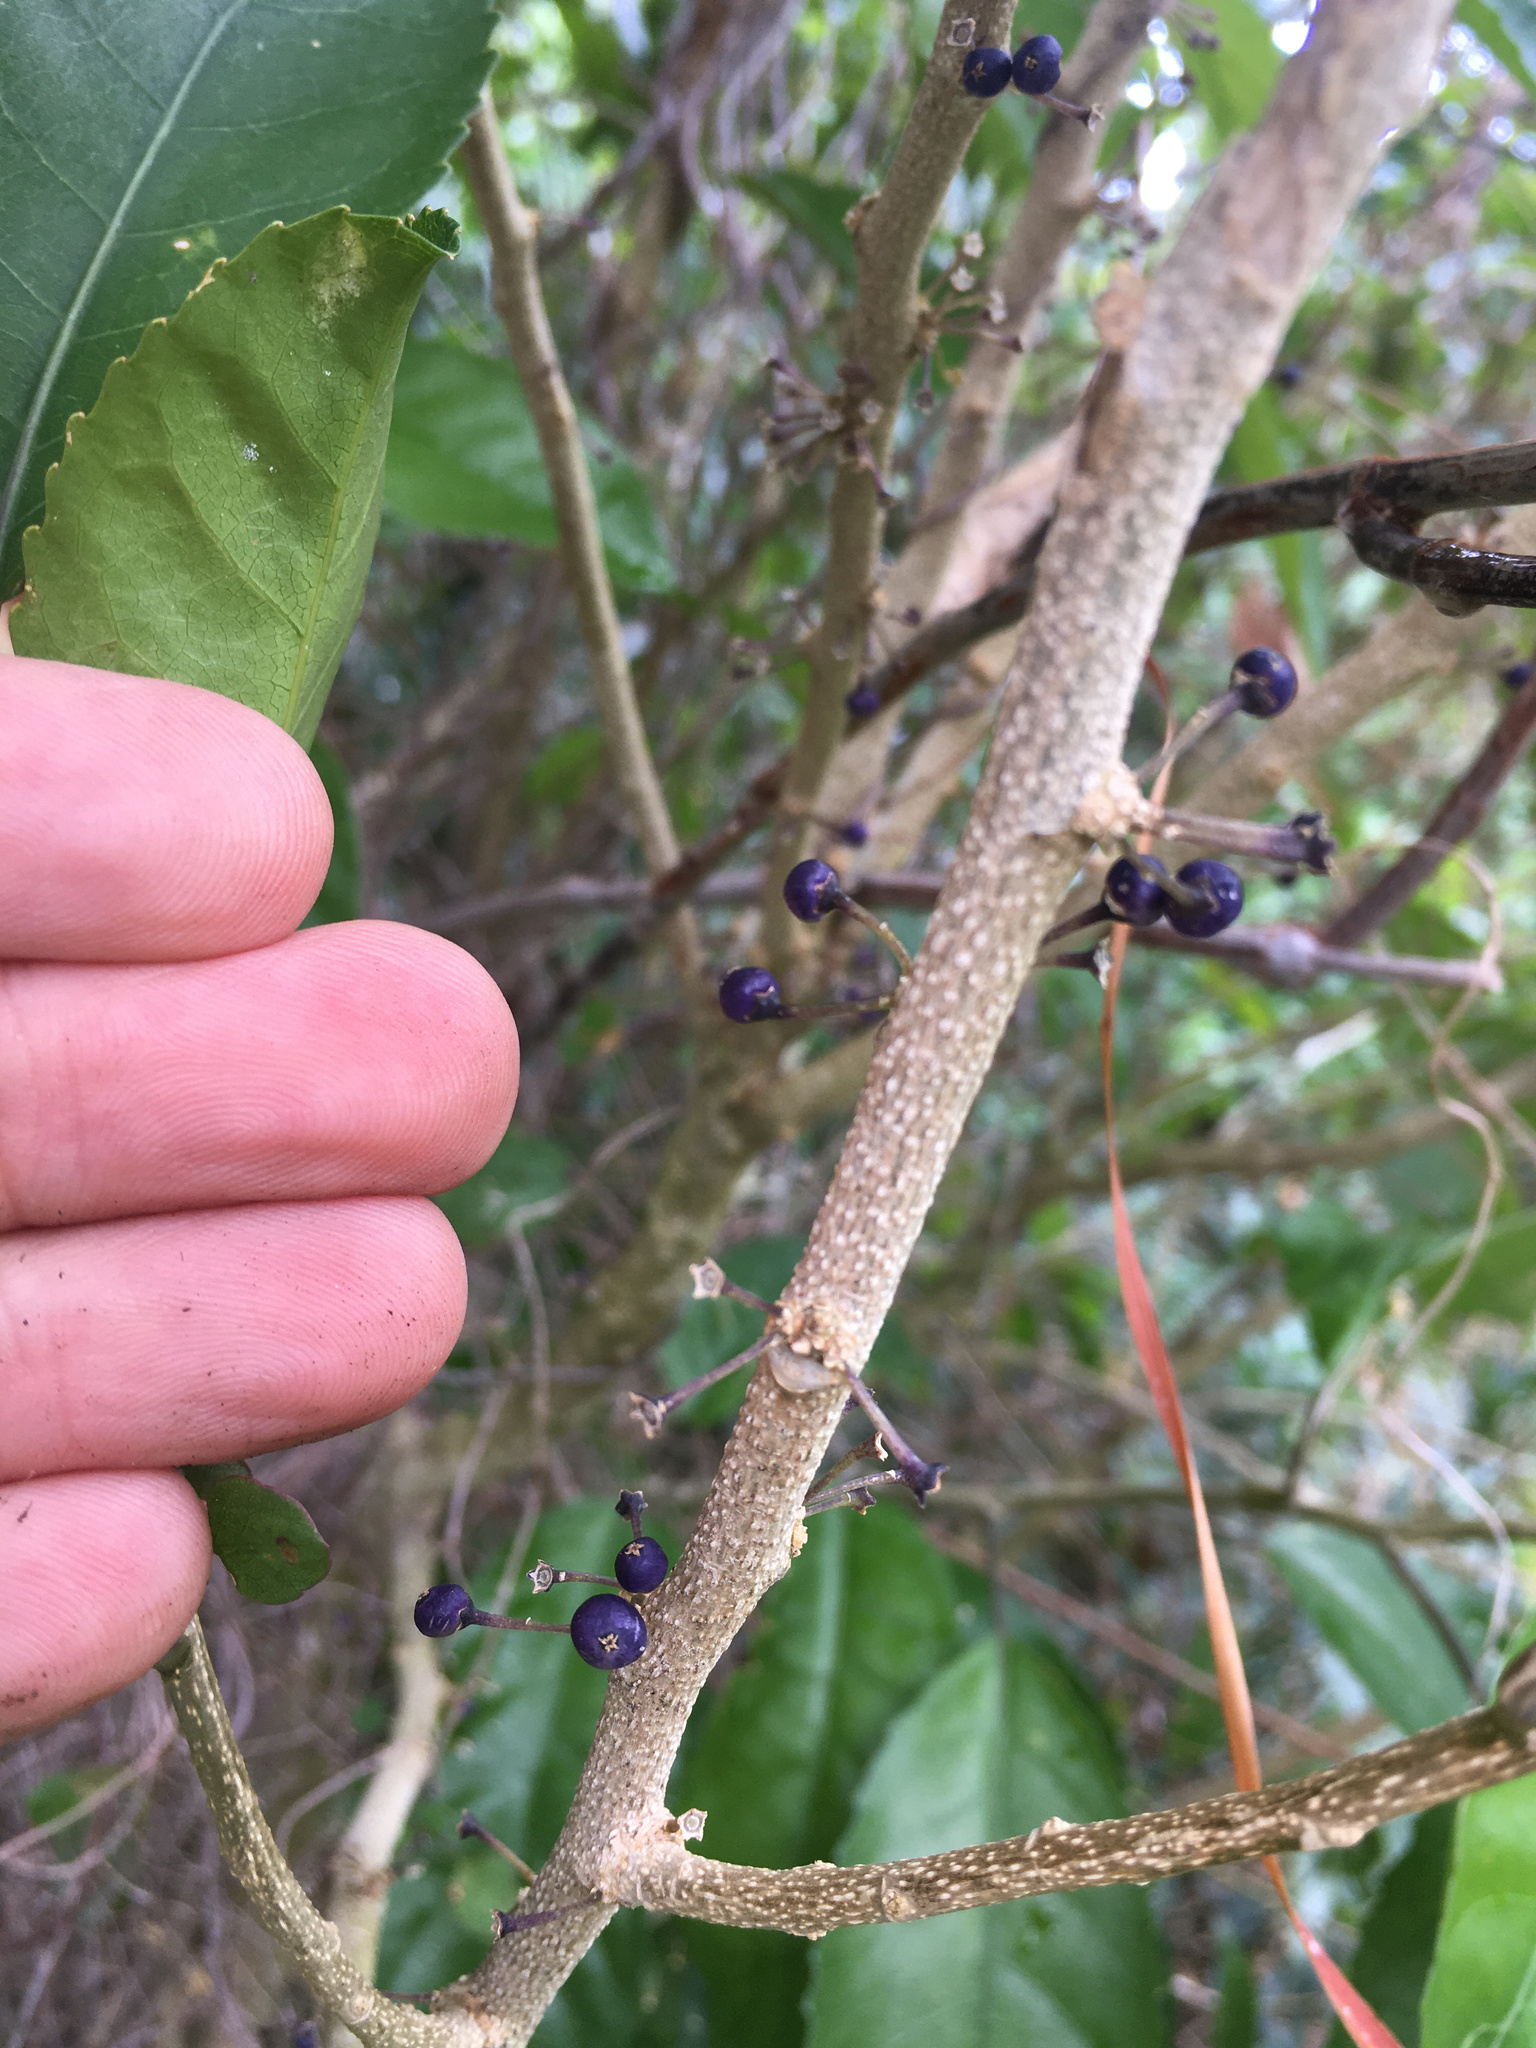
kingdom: Plantae
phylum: Tracheophyta
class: Magnoliopsida
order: Malpighiales
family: Violaceae
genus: Melicytus
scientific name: Melicytus ramiflorus
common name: Mahoe
